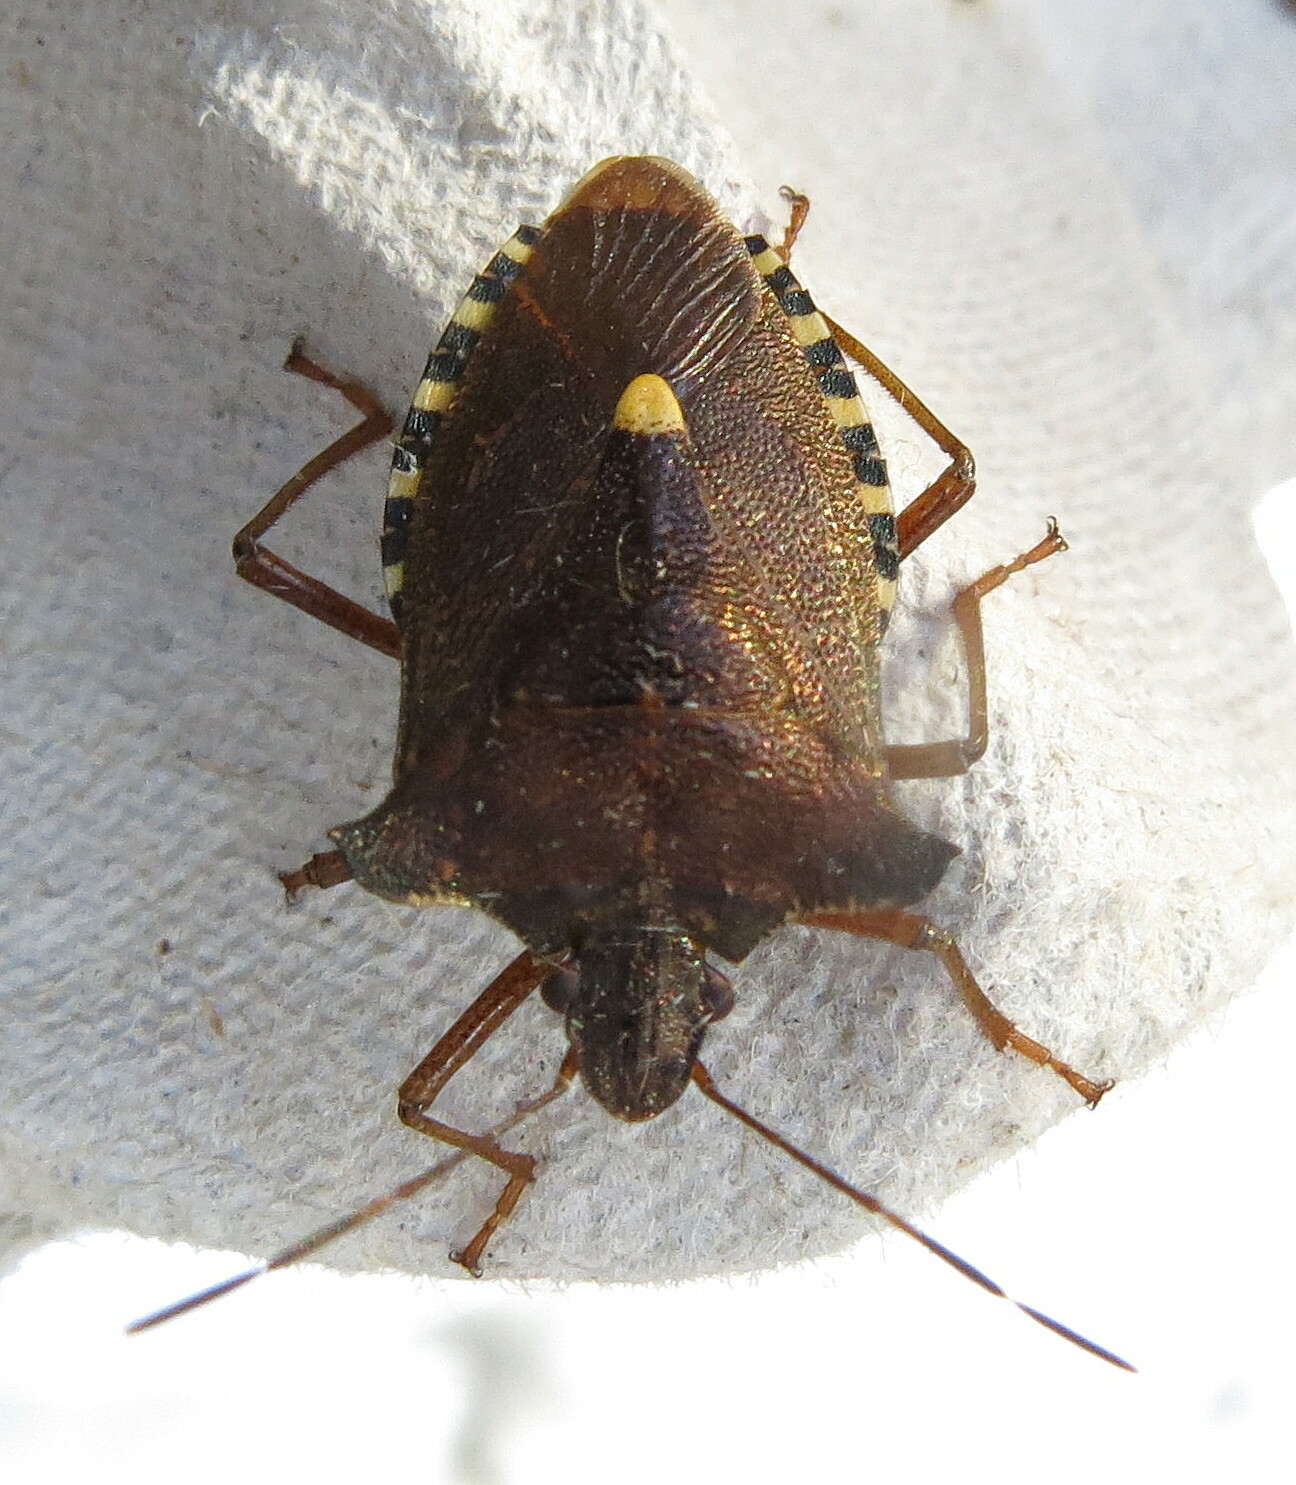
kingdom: Animalia
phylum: Arthropoda
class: Insecta
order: Hemiptera
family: Pentatomidae
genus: Pentatoma
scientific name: Pentatoma rufipes
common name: Forest bug
